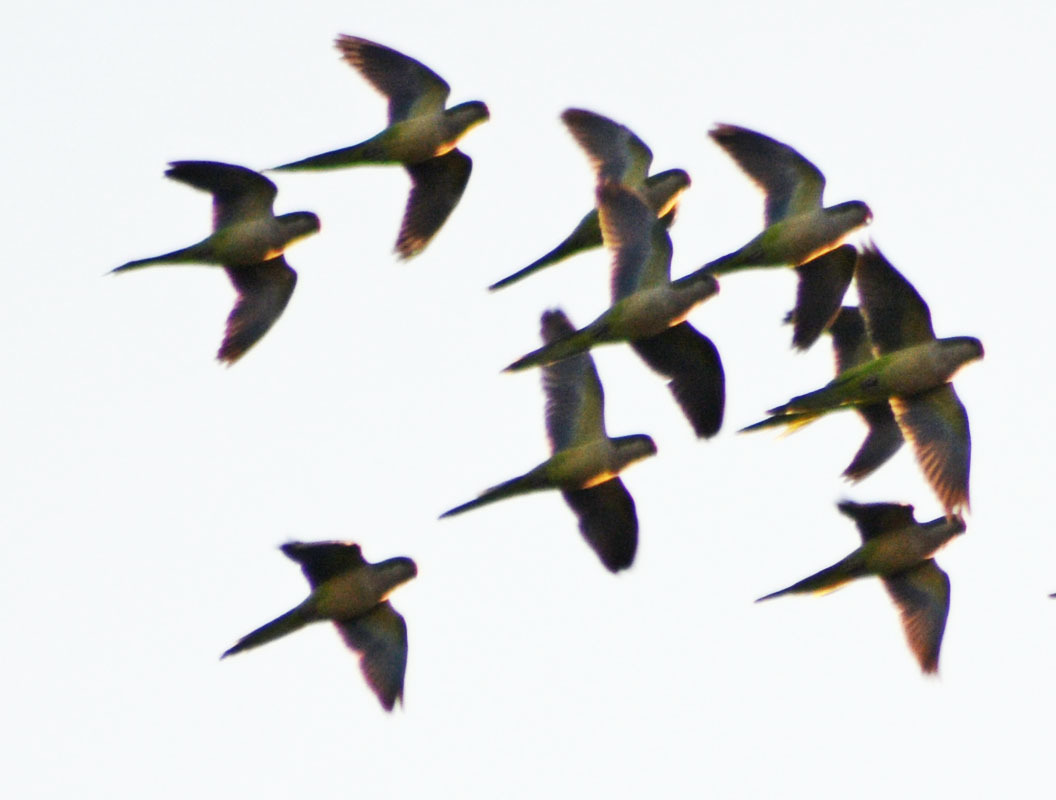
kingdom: Animalia
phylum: Chordata
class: Aves
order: Psittaciformes
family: Psittacidae
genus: Myiopsitta
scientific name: Myiopsitta monachus
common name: Monk parakeet
